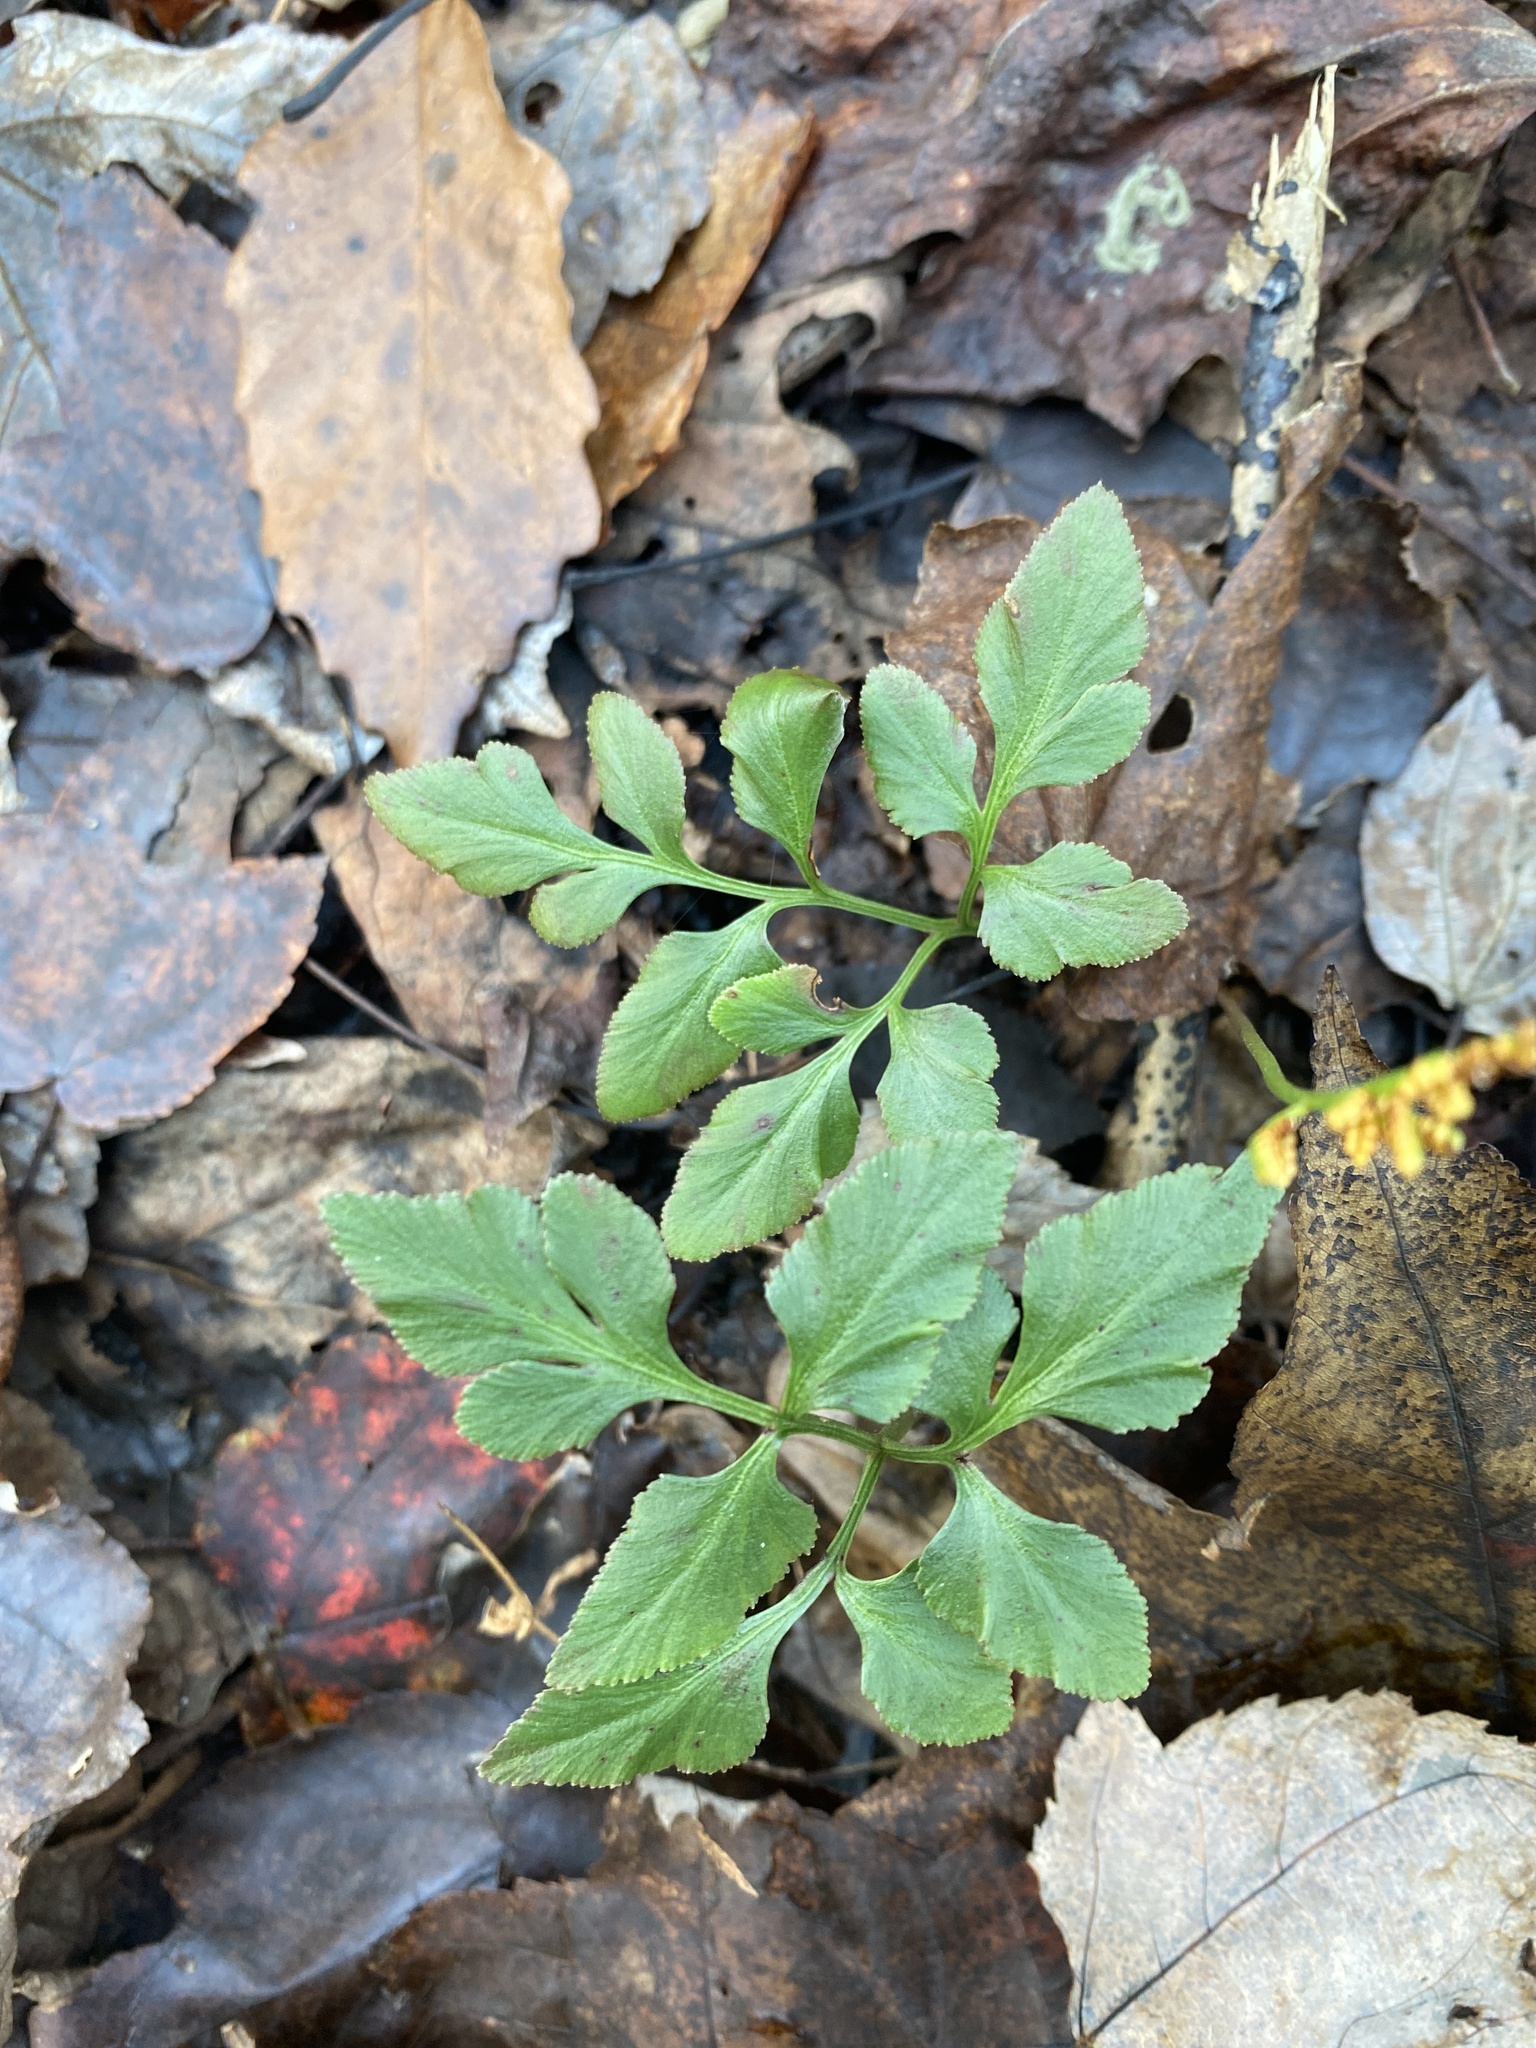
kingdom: Plantae
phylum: Tracheophyta
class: Polypodiopsida
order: Ophioglossales
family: Ophioglossaceae
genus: Sceptridium
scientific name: Sceptridium biternatum
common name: Sparse-lobed grapefern
